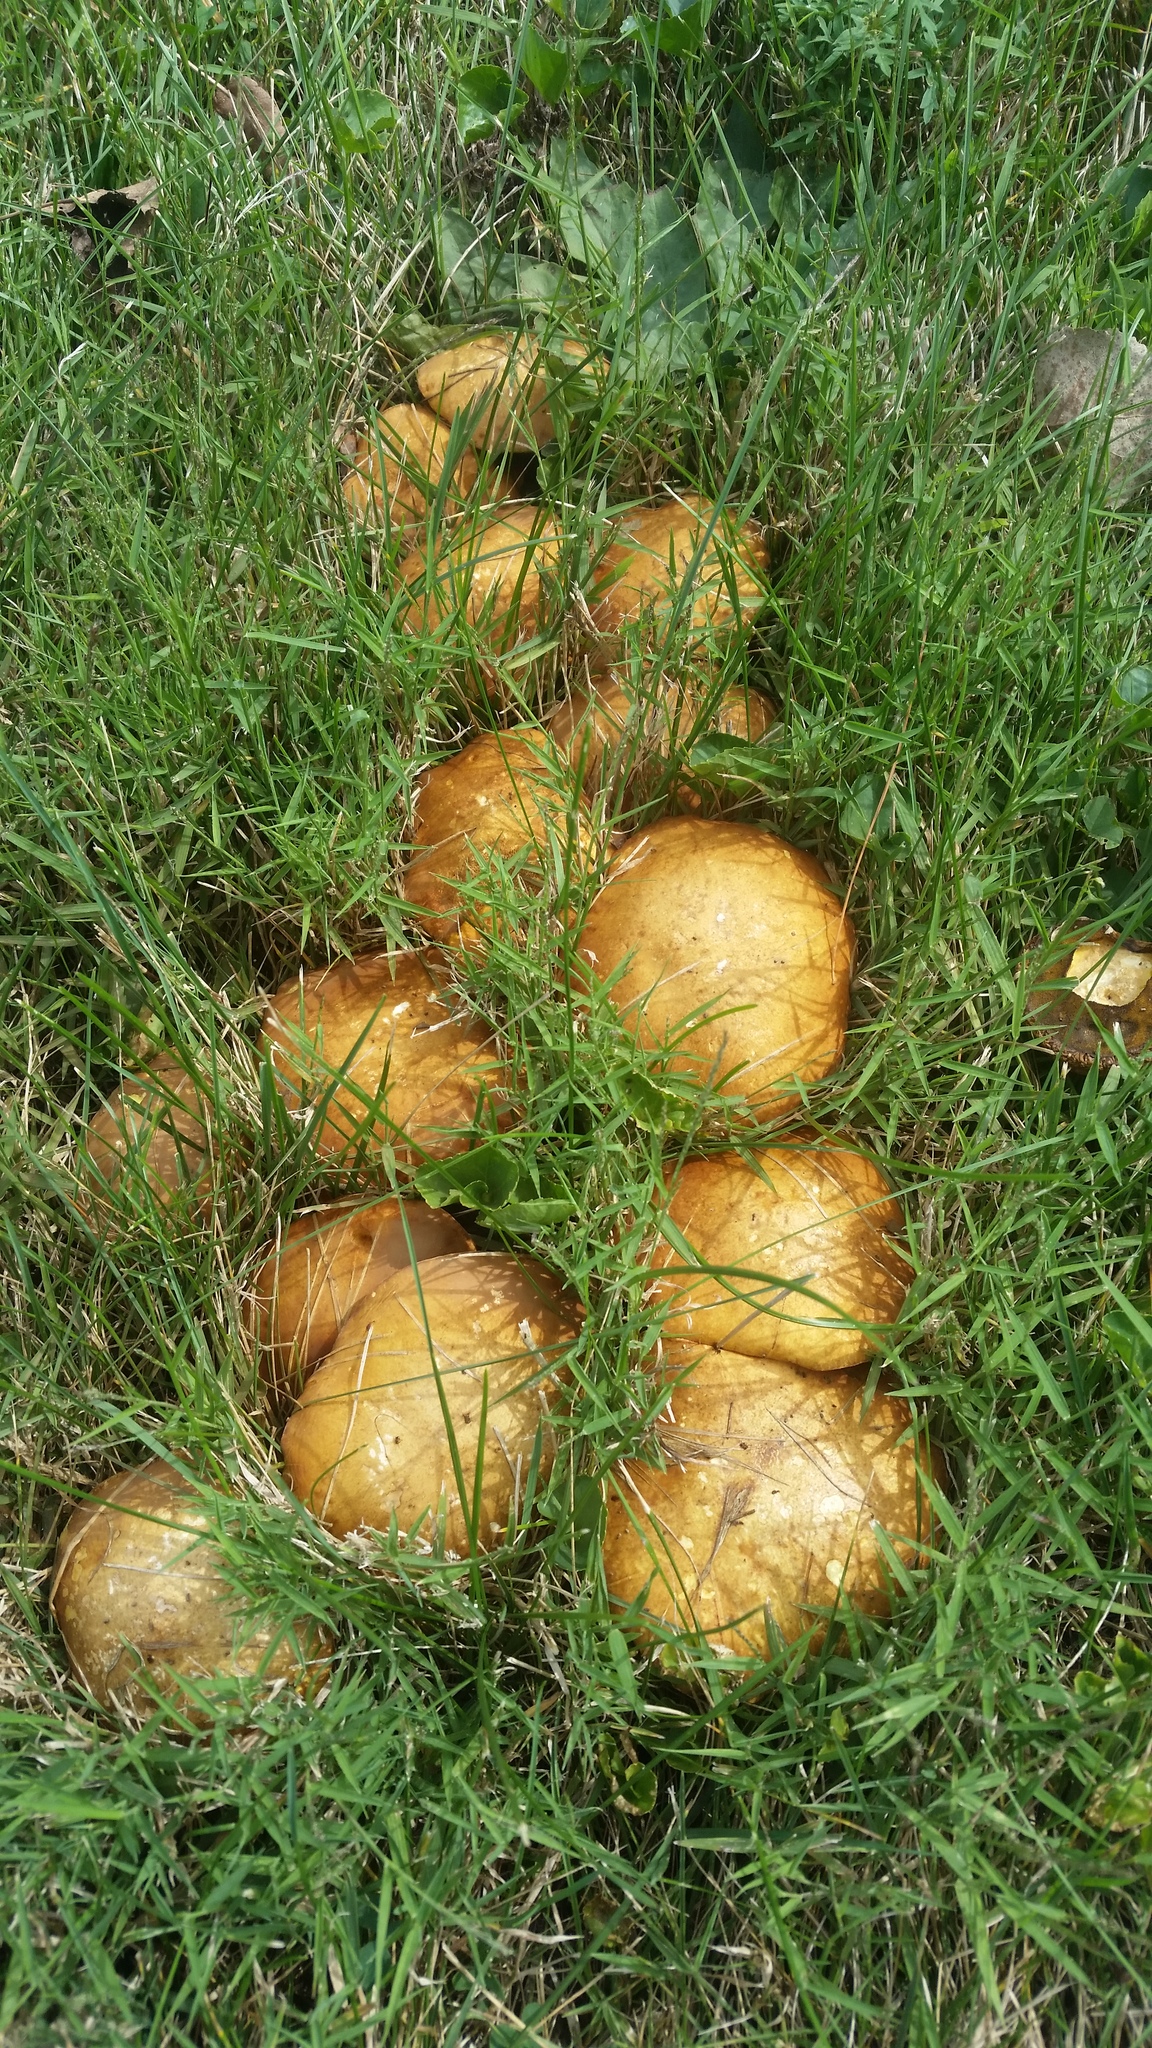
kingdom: Fungi
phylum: Basidiomycota
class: Agaricomycetes
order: Boletales
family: Suillaceae
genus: Suillus
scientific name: Suillus americanus
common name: Chicken fat mushroom
